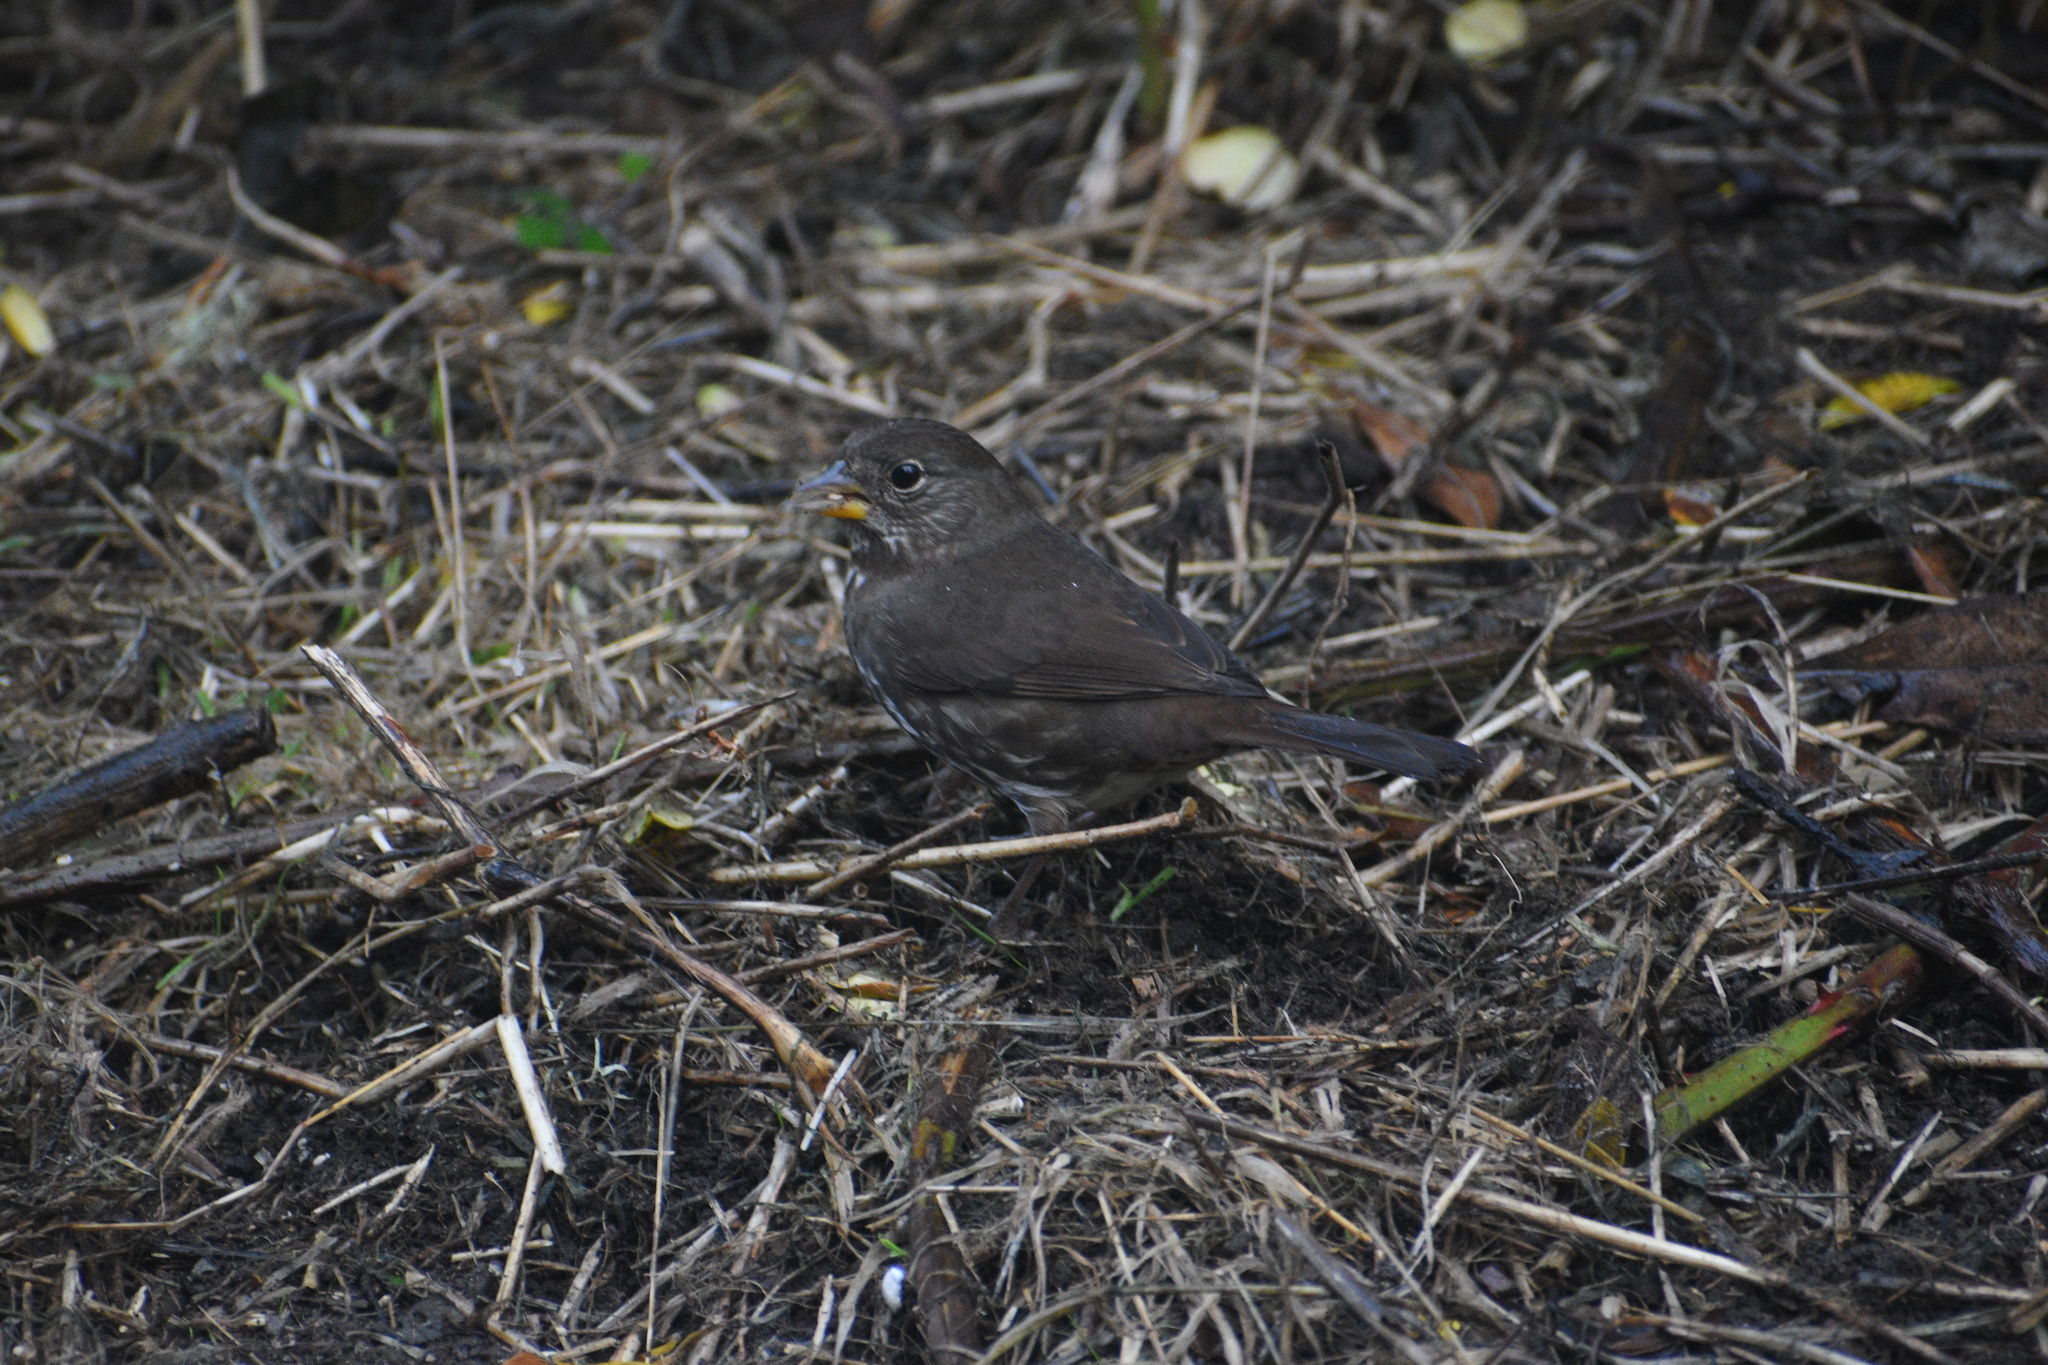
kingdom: Animalia
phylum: Chordata
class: Aves
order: Passeriformes
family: Passerellidae
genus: Passerella
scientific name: Passerella iliaca
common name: Fox sparrow
